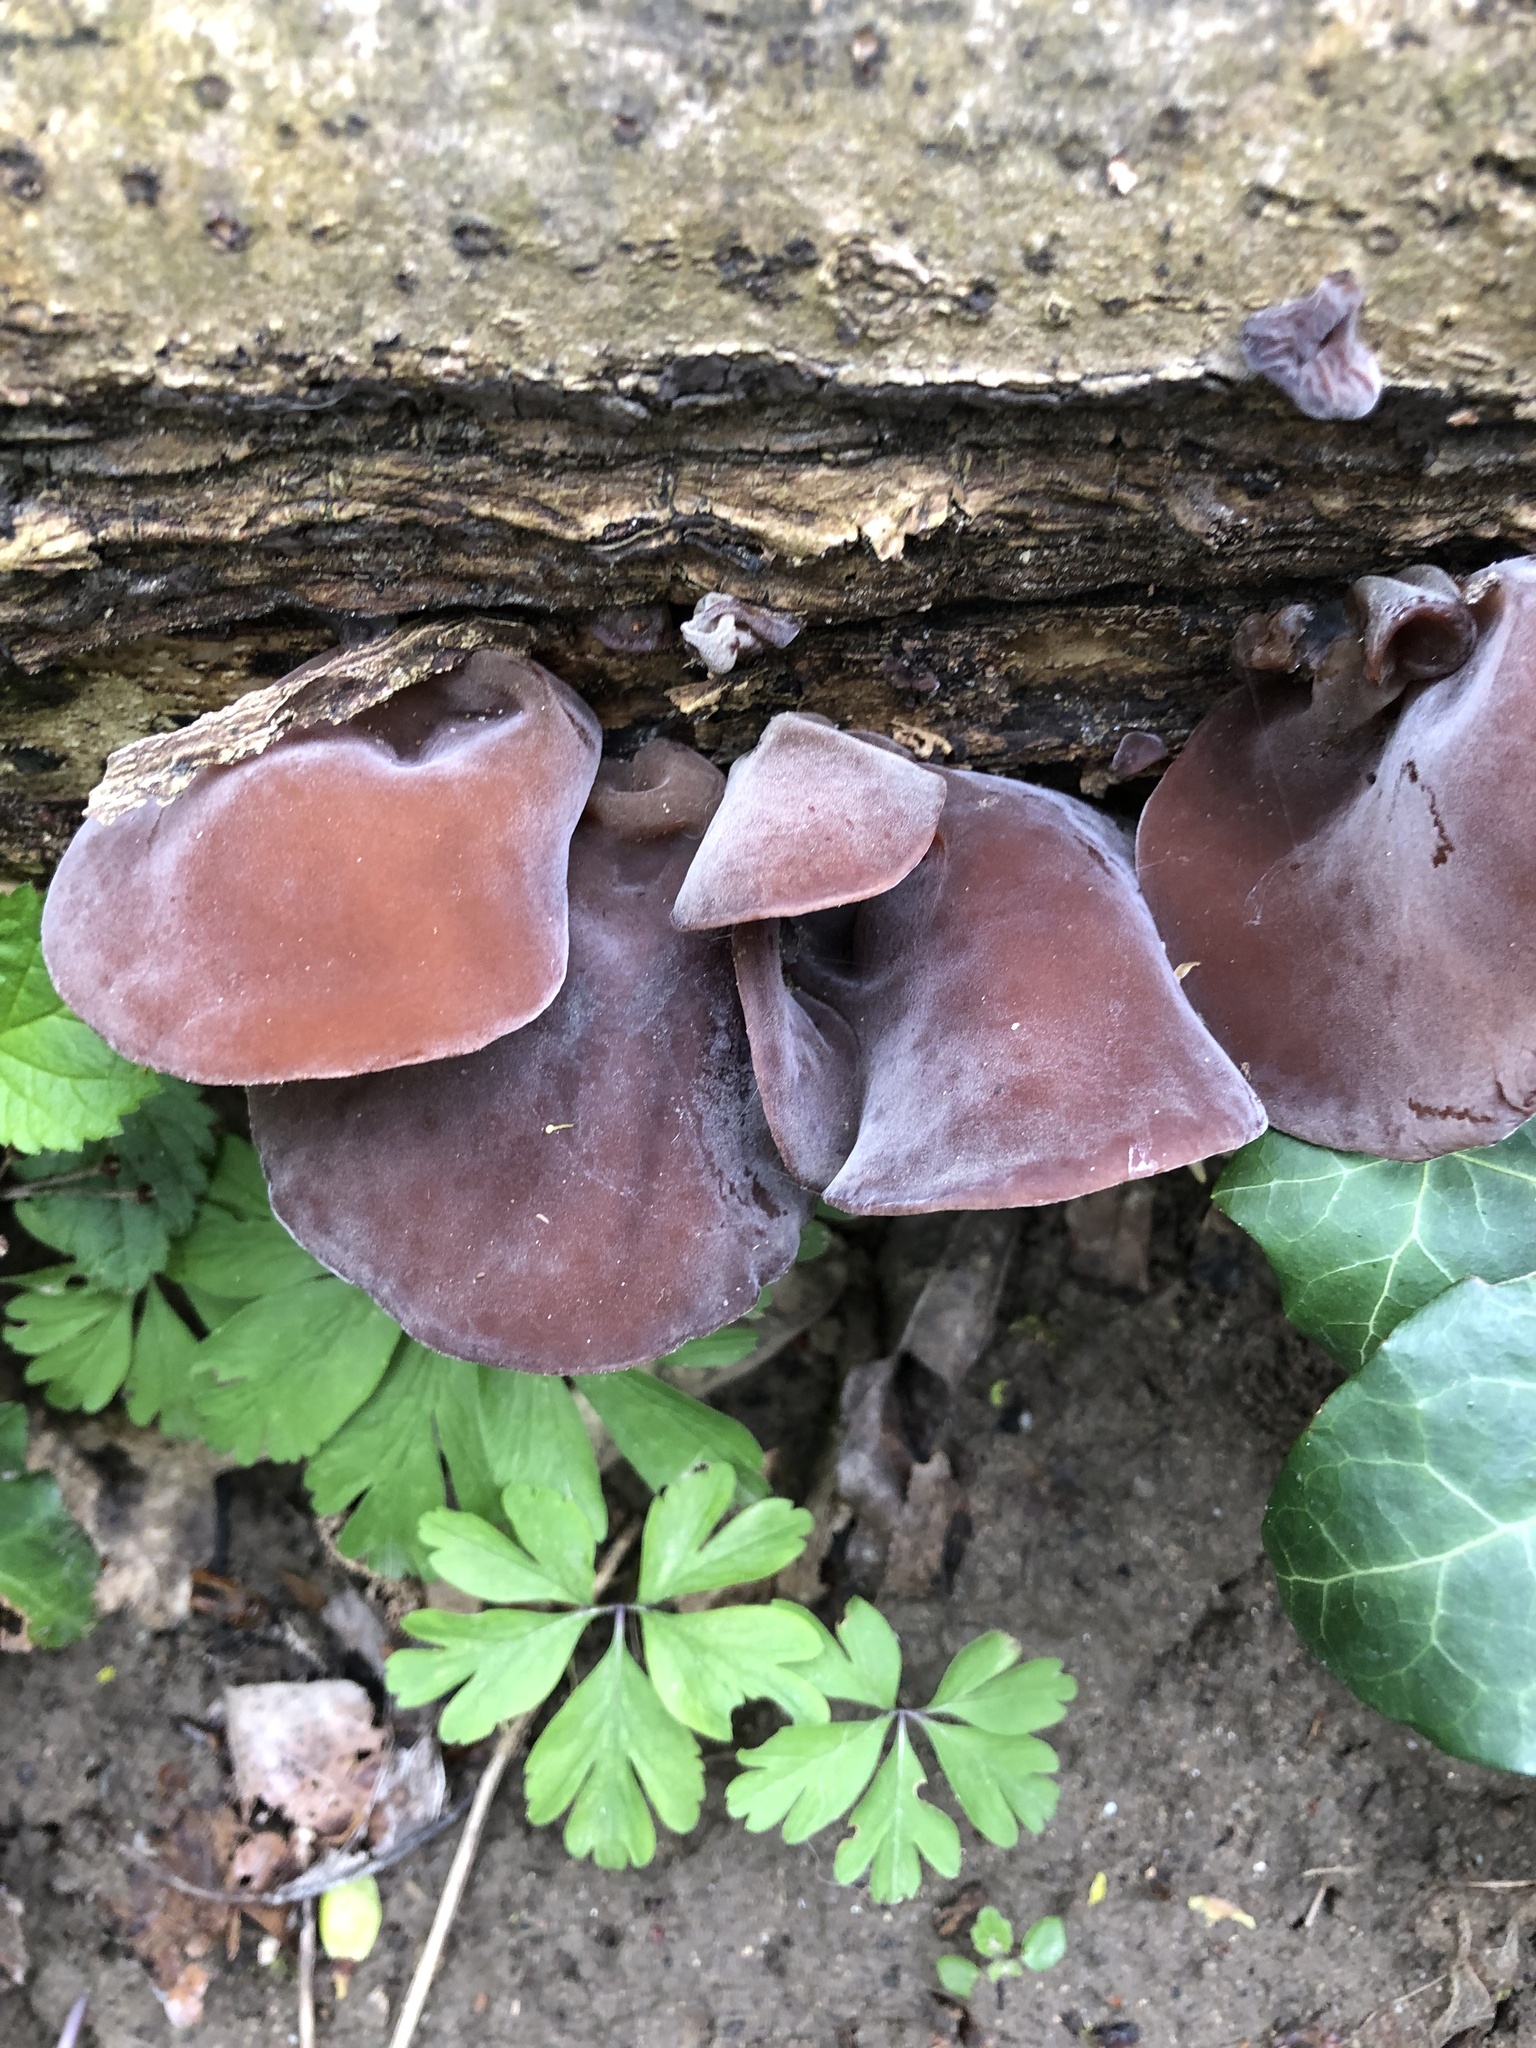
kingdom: Fungi
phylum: Basidiomycota
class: Agaricomycetes
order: Auriculariales
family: Auriculariaceae
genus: Auricularia
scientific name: Auricularia auricula-judae
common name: Jelly ear
